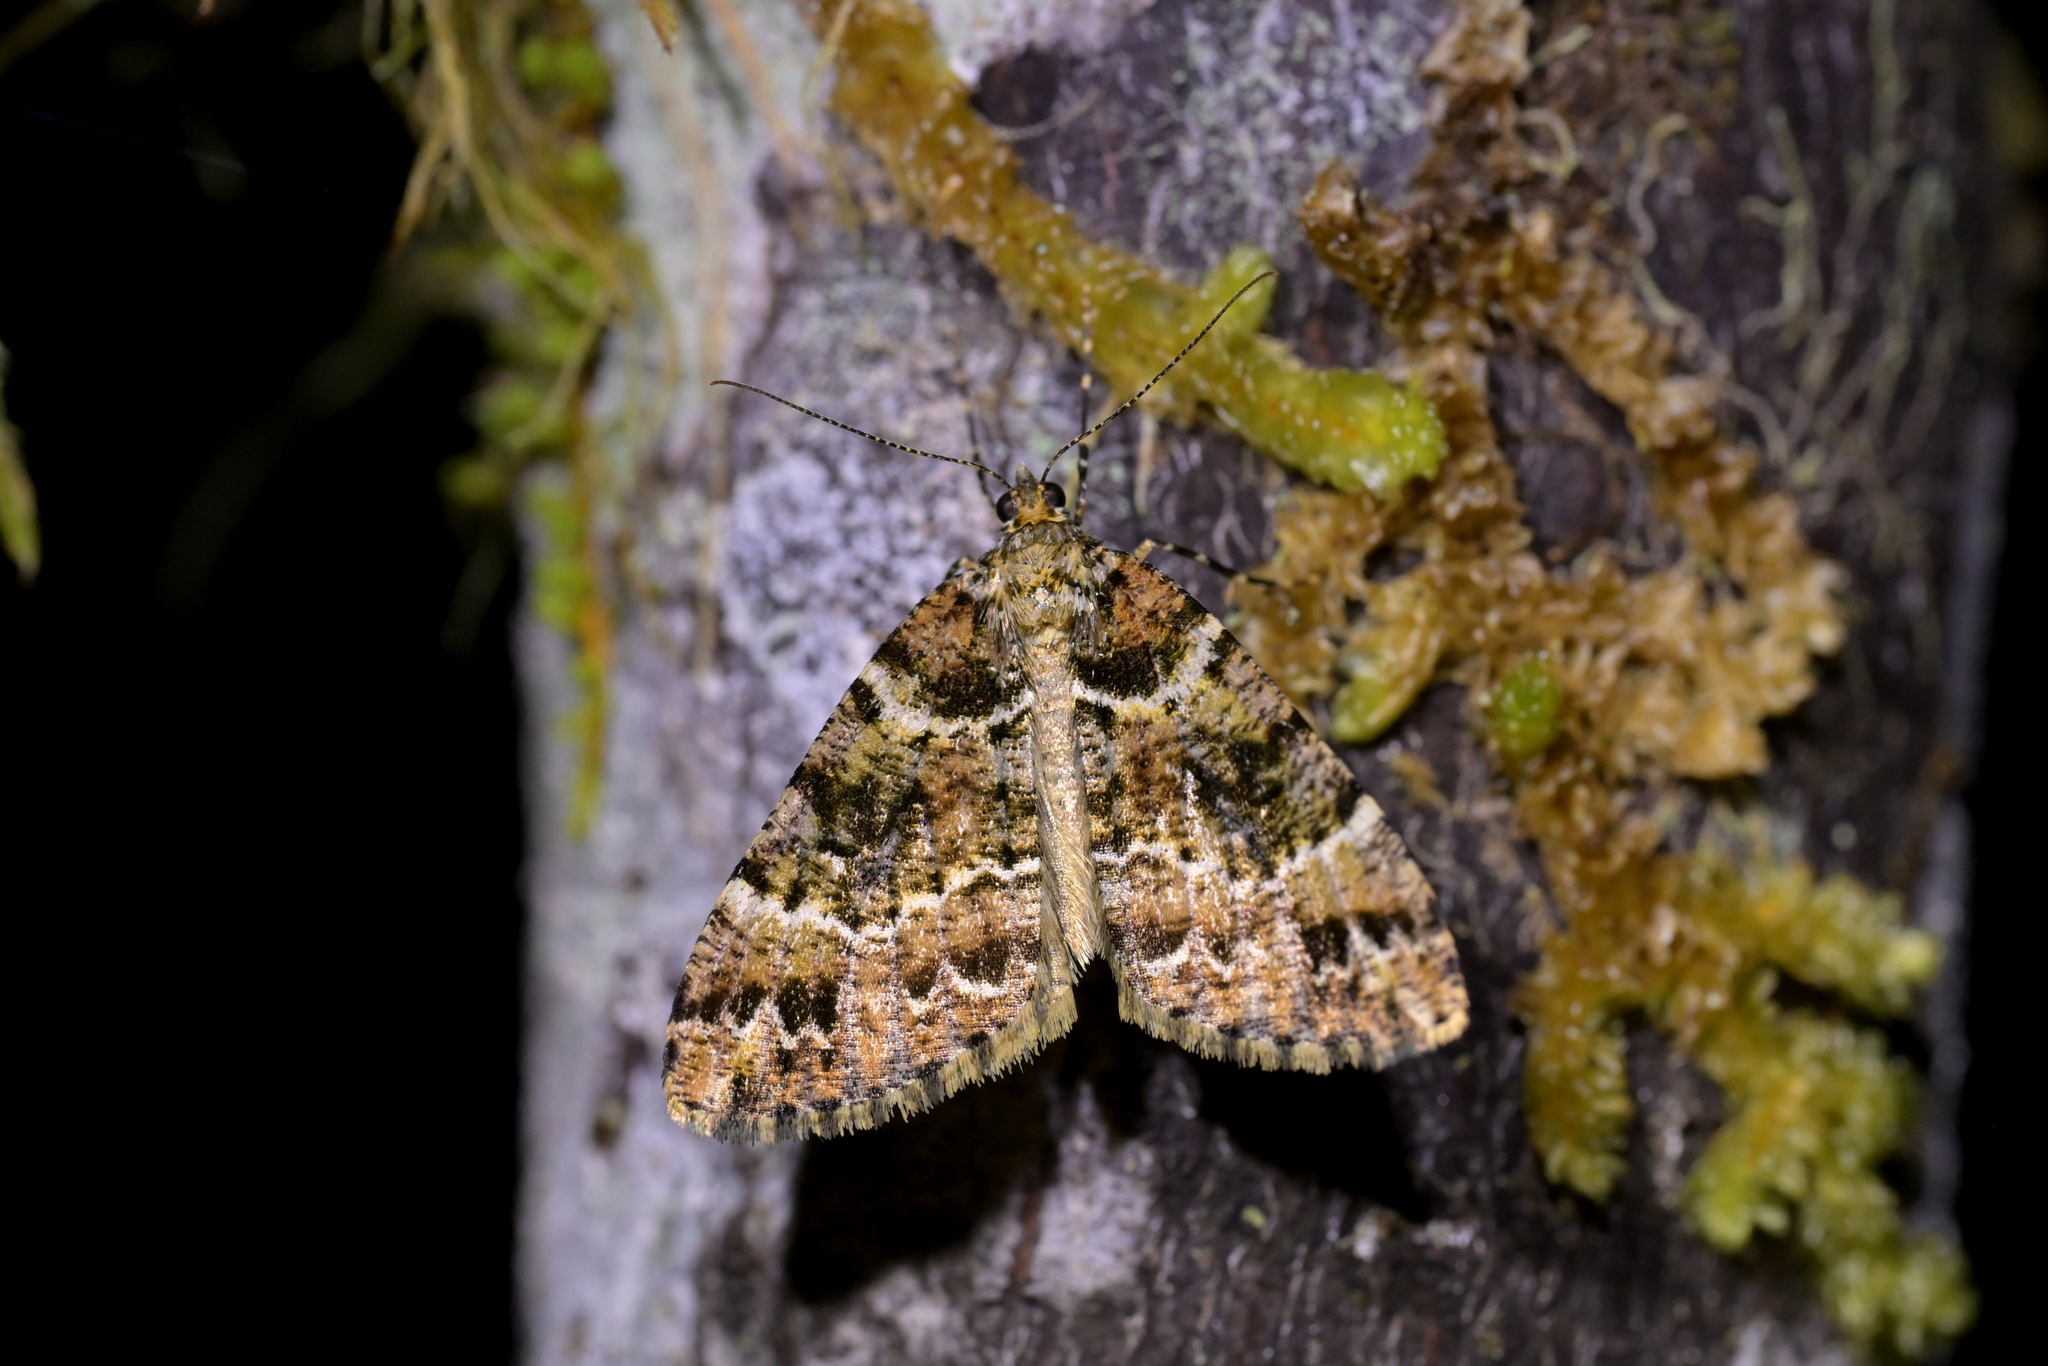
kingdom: Animalia
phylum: Arthropoda
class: Insecta
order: Lepidoptera
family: Geometridae
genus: Pseudocoremia
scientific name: Pseudocoremia productata
